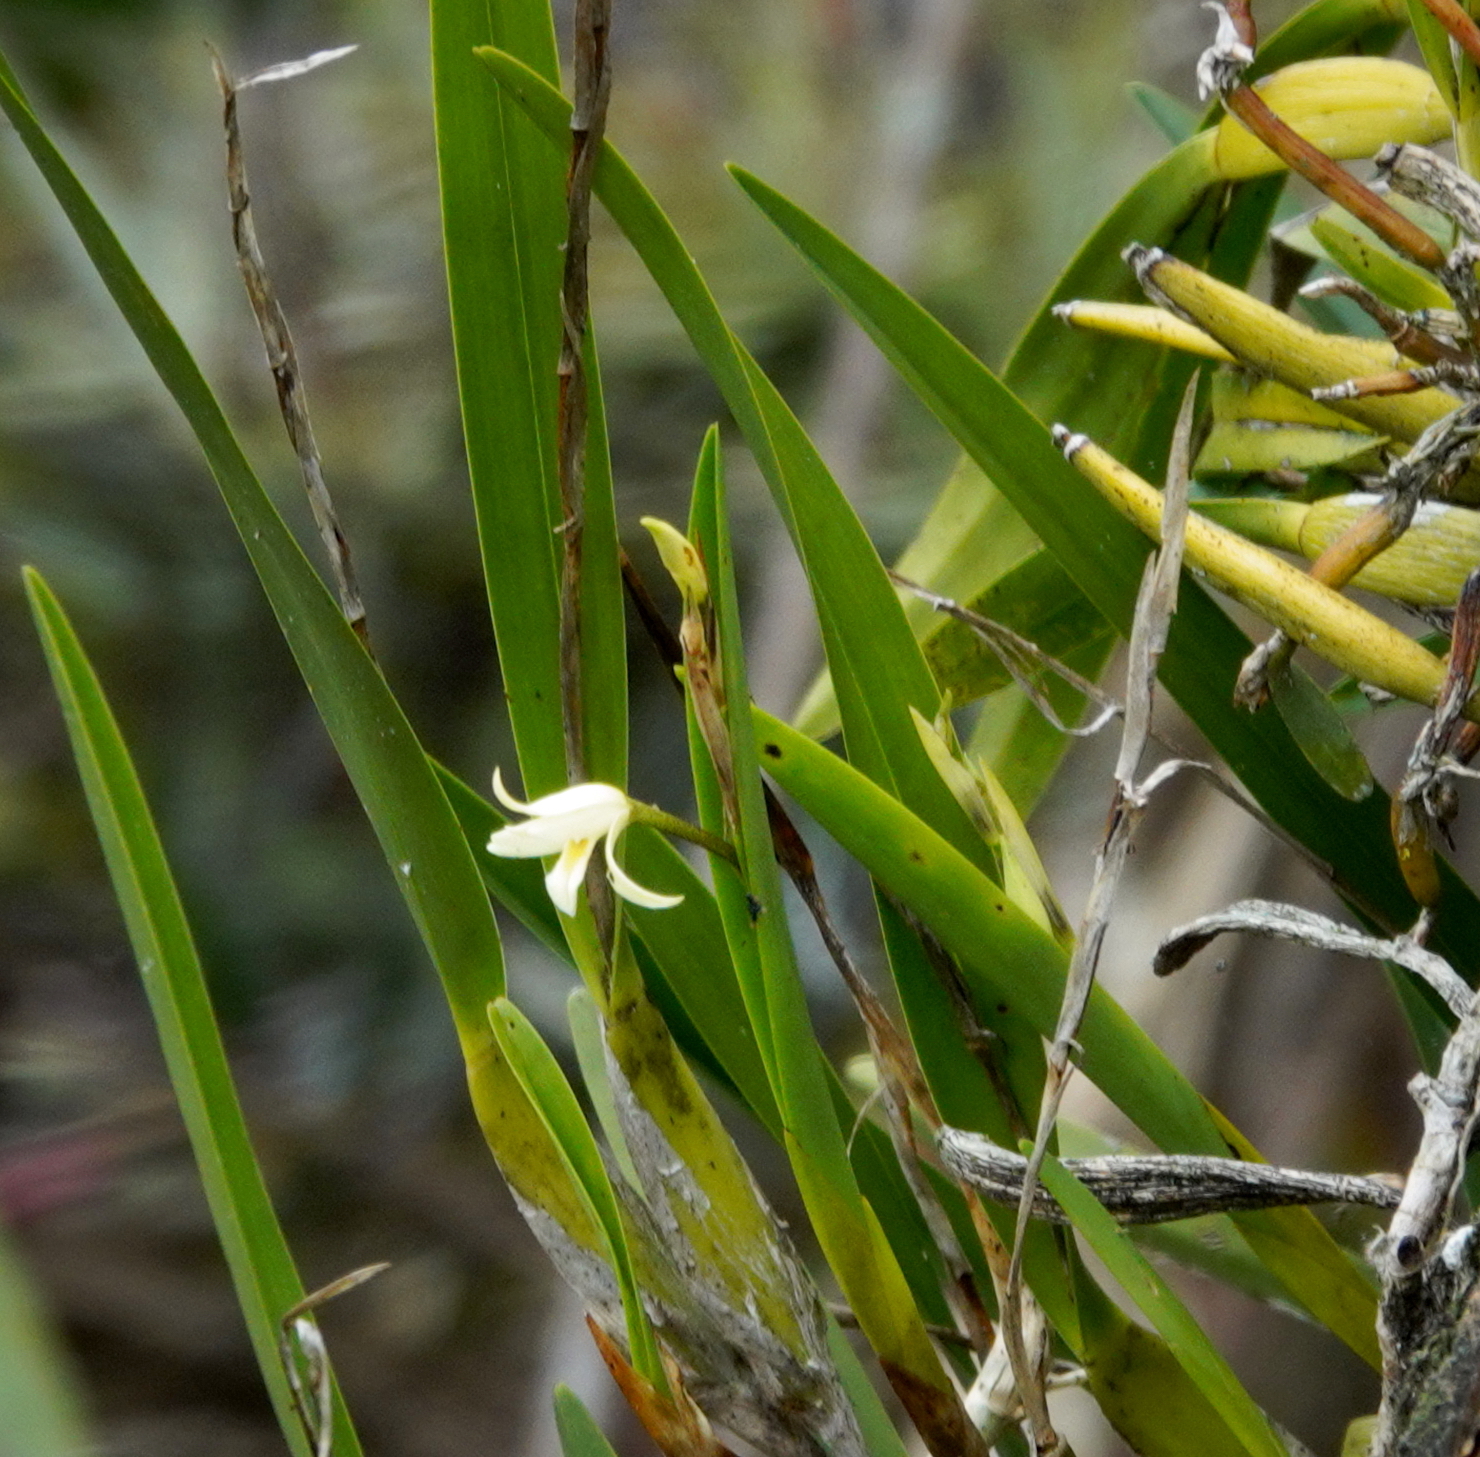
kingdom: Plantae
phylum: Tracheophyta
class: Liliopsida
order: Asparagales
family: Orchidaceae
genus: Nidema
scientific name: Nidema boothii
